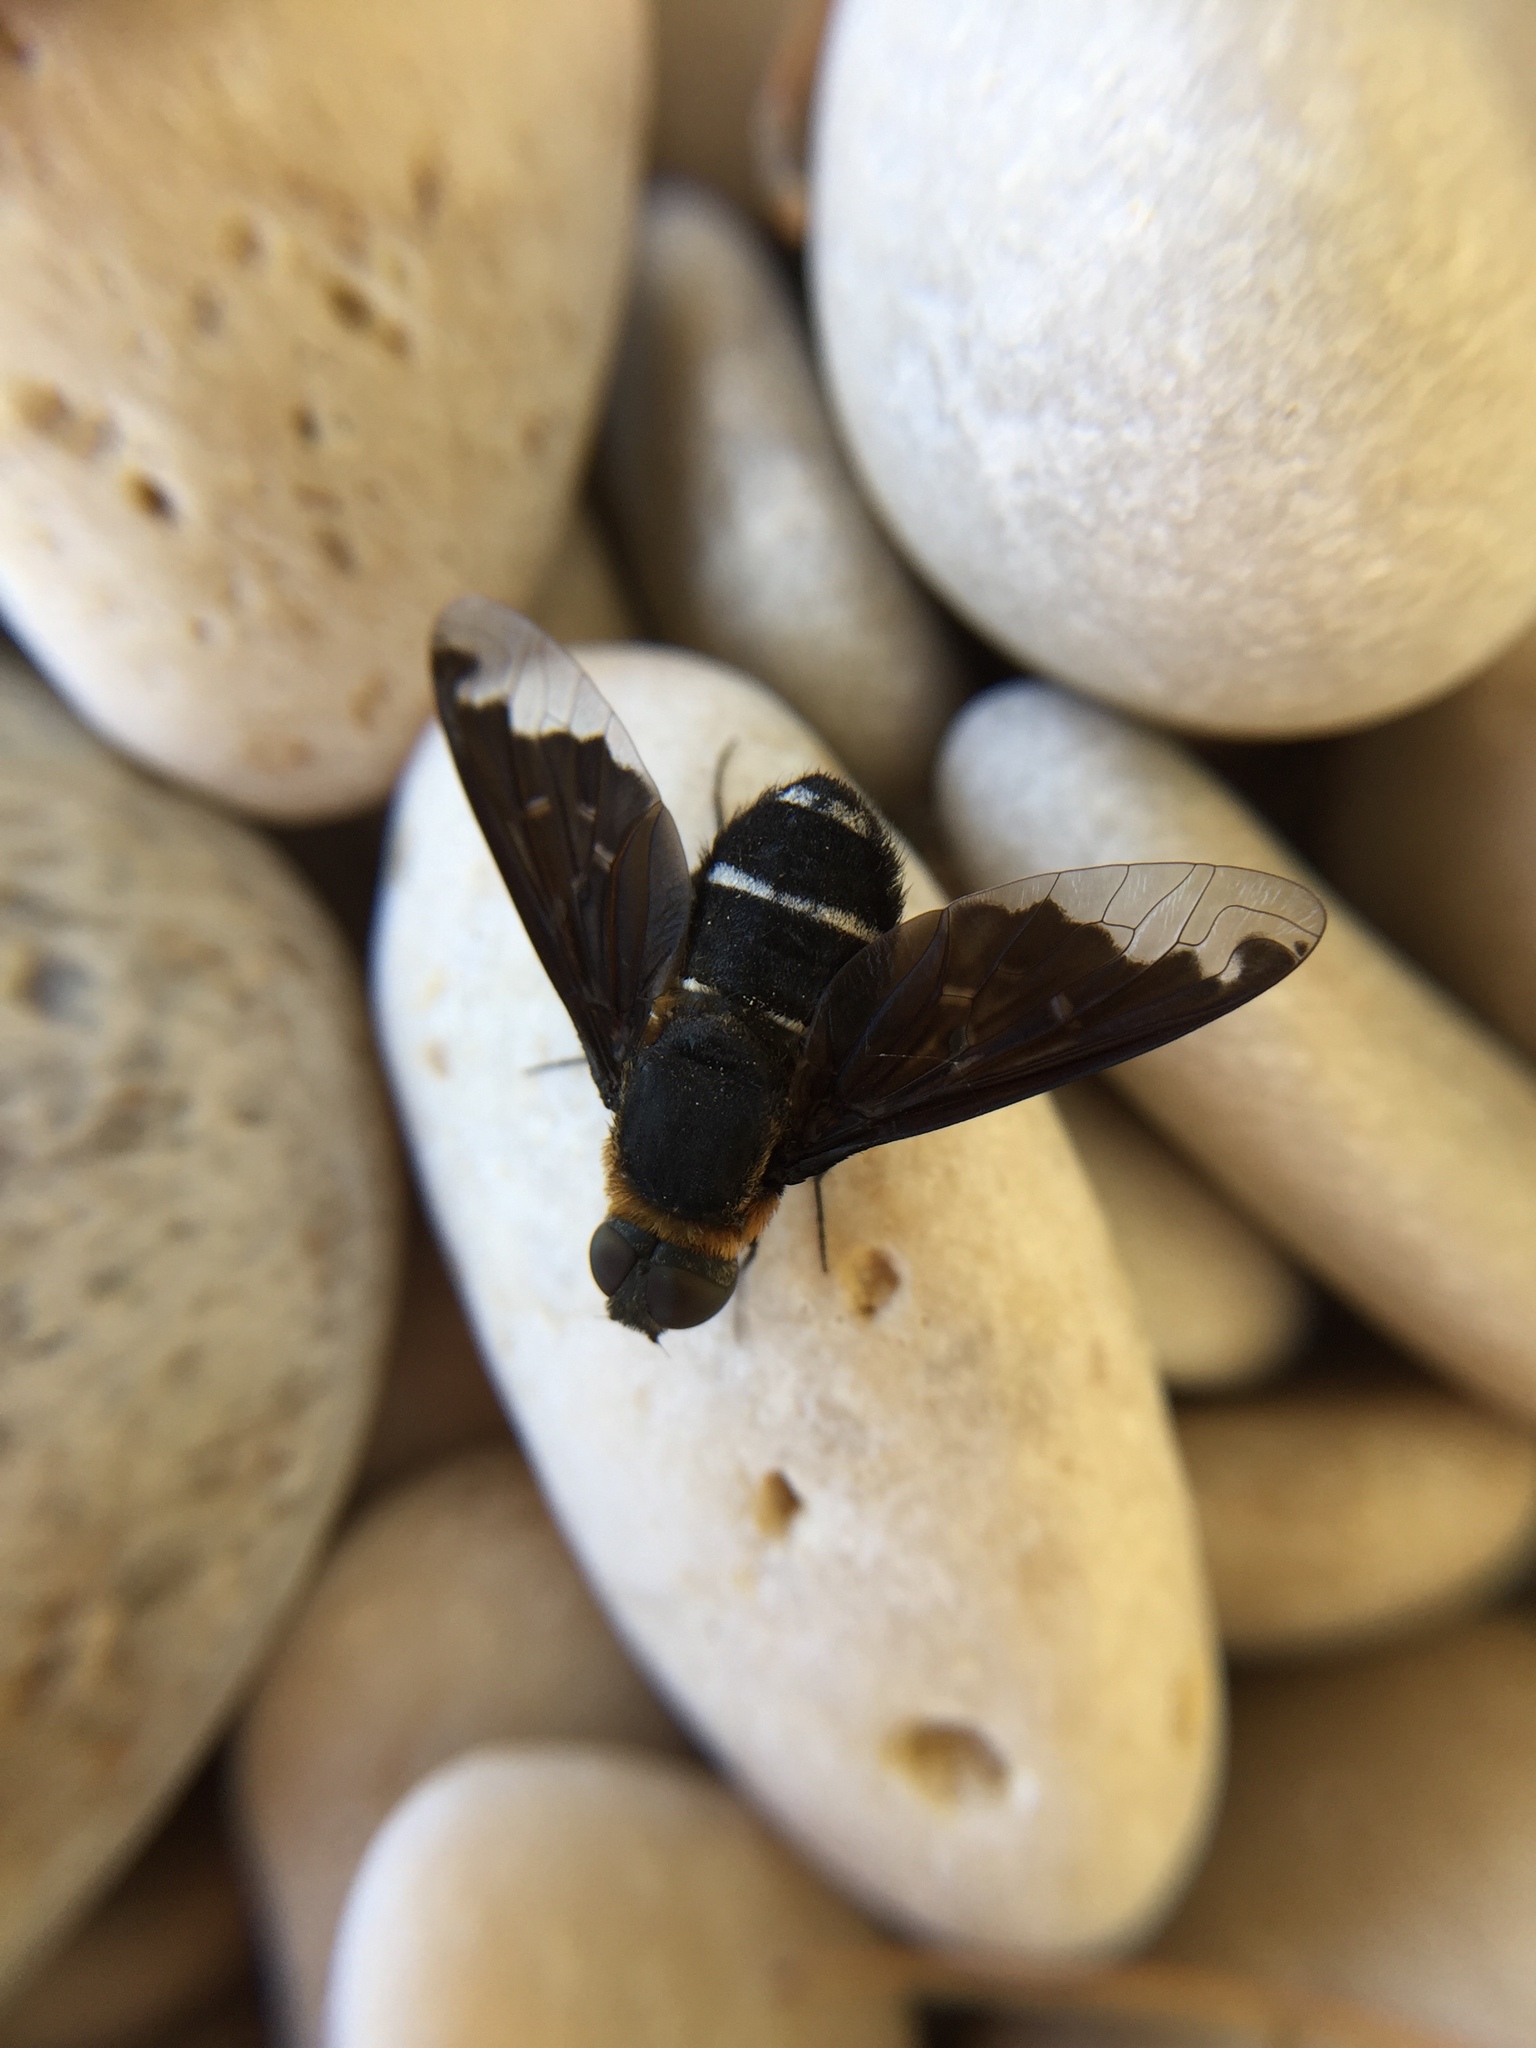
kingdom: Animalia
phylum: Arthropoda
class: Insecta
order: Diptera
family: Bombyliidae
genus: Hemipenthes
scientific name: Hemipenthes velutina
